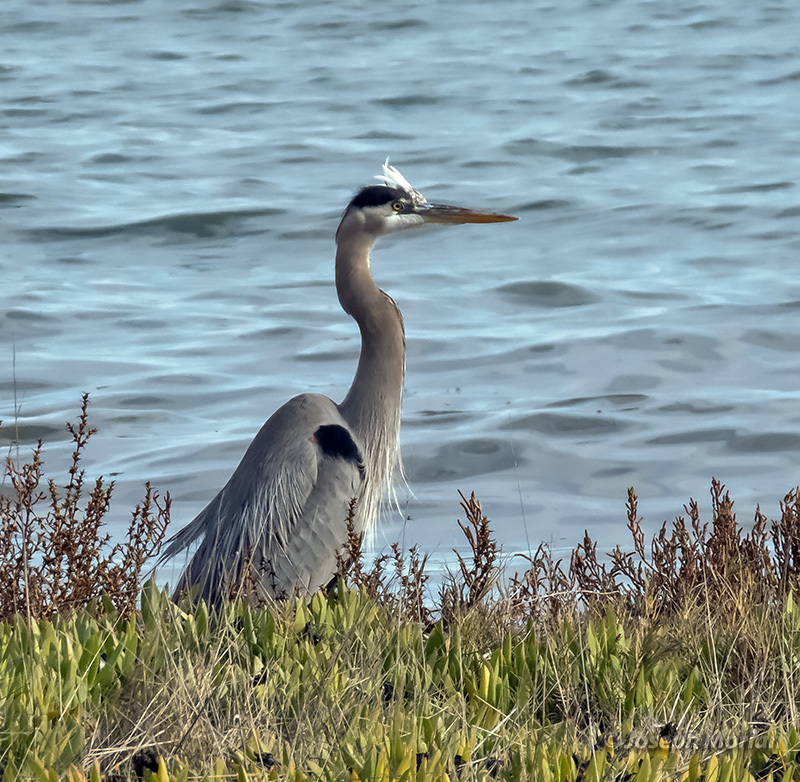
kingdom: Animalia
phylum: Chordata
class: Aves
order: Pelecaniformes
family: Ardeidae
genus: Ardea
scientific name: Ardea herodias
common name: Great blue heron
